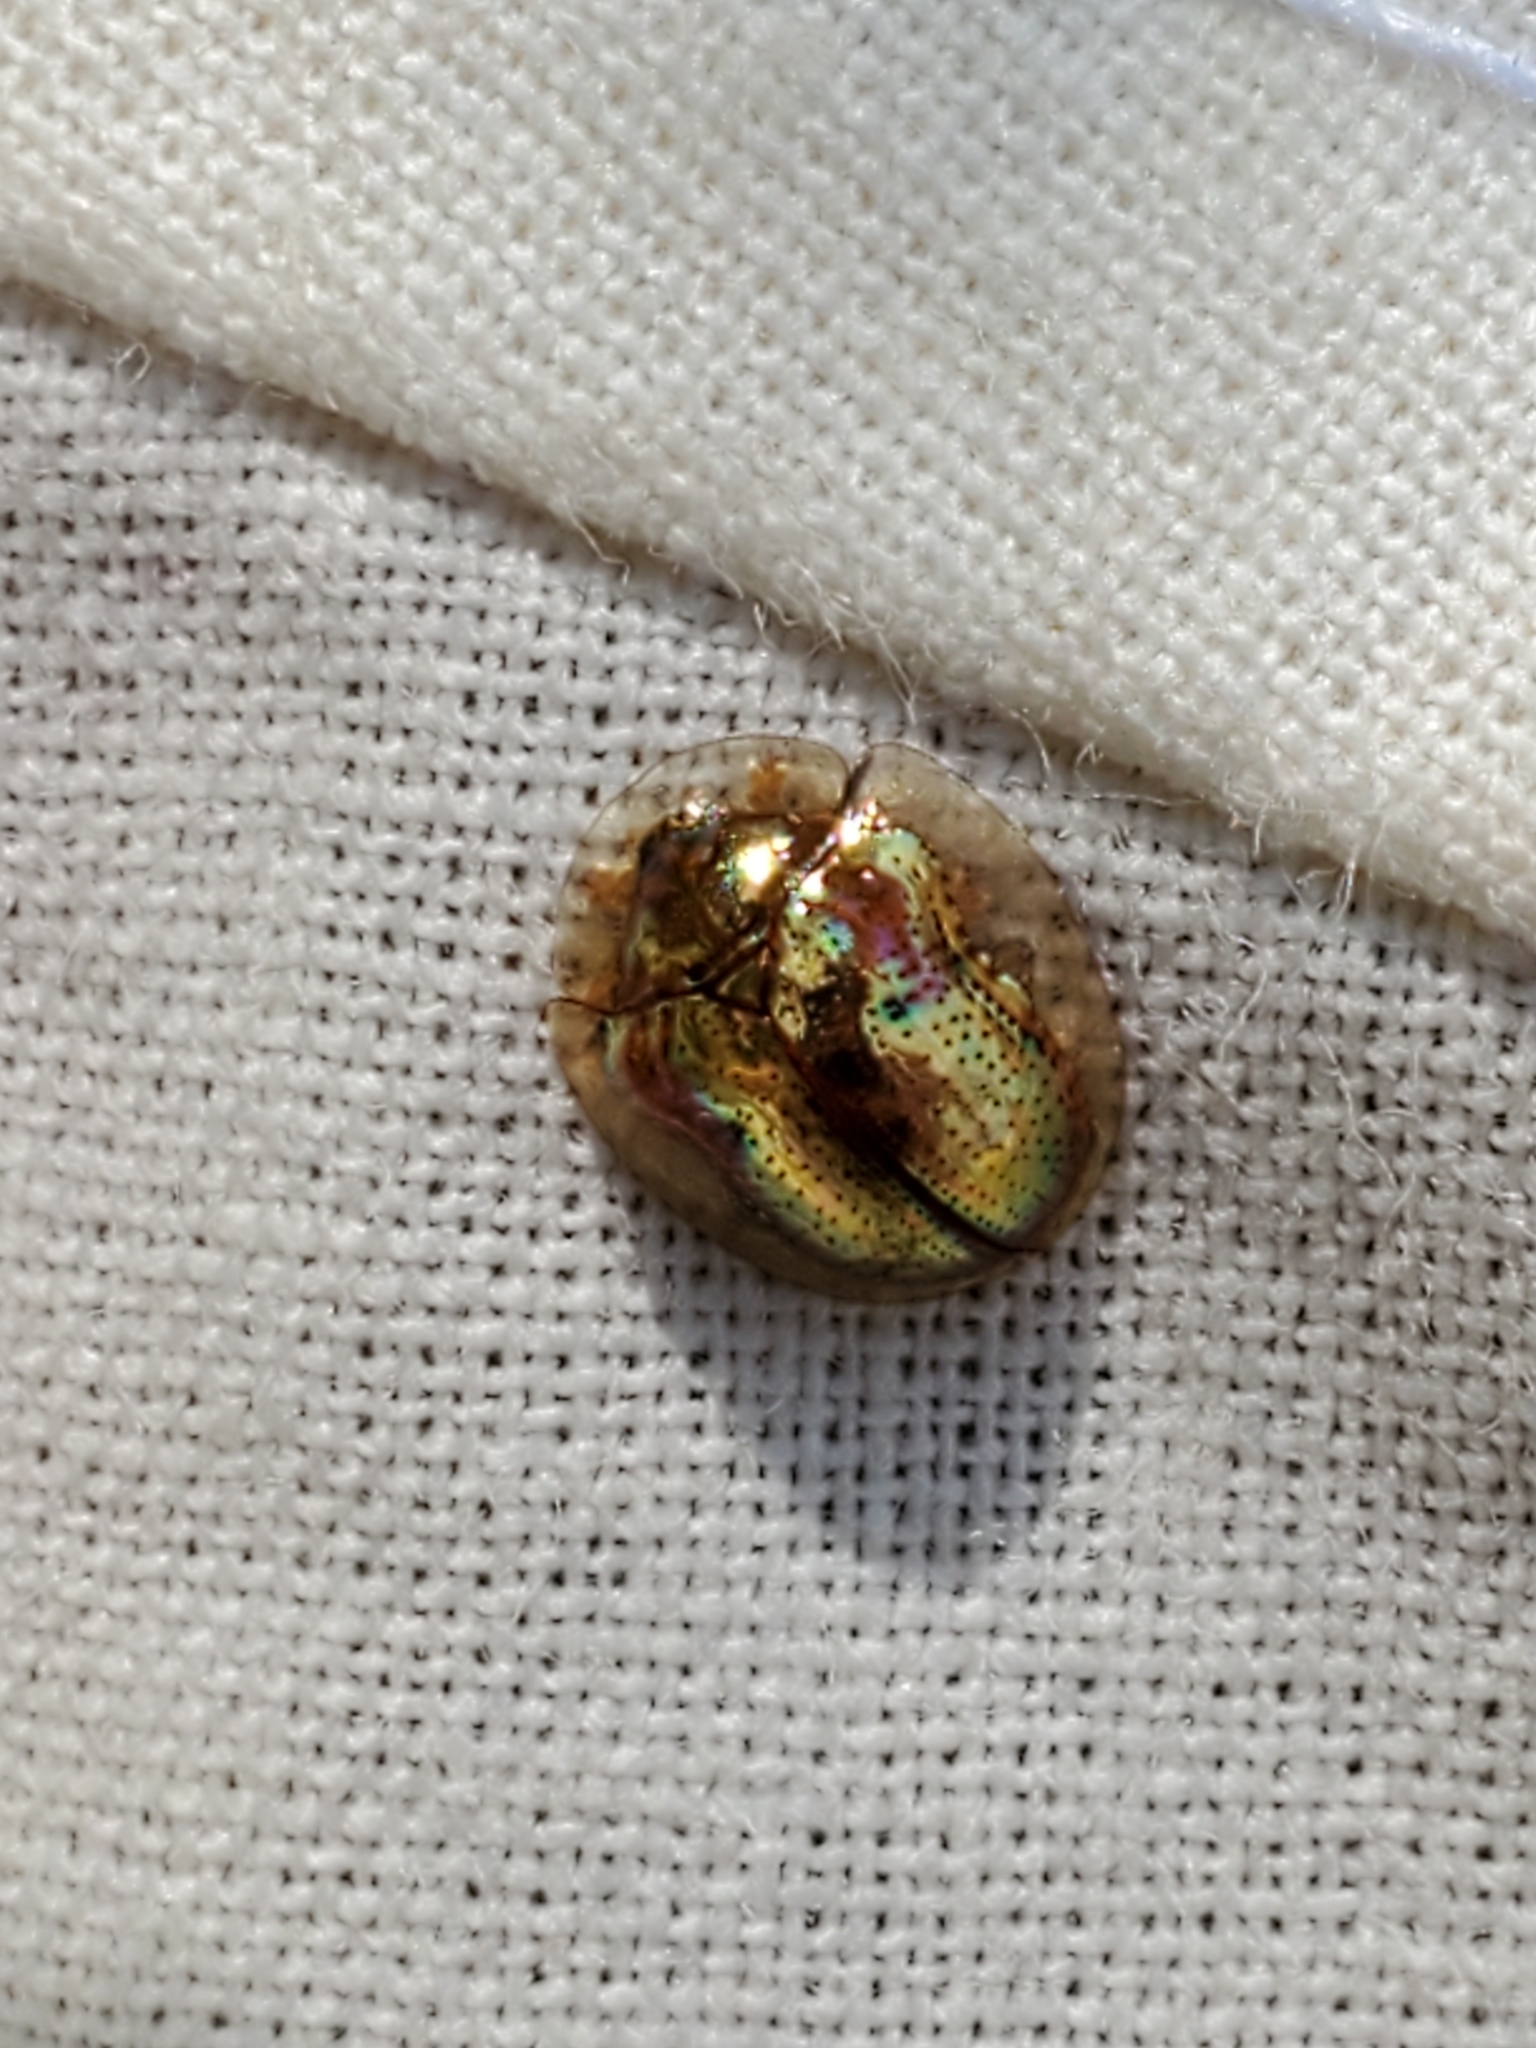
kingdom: Animalia
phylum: Arthropoda
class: Insecta
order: Coleoptera
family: Chrysomelidae
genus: Charidotella
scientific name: Charidotella sexpunctata
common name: Golden tortoise beetle
